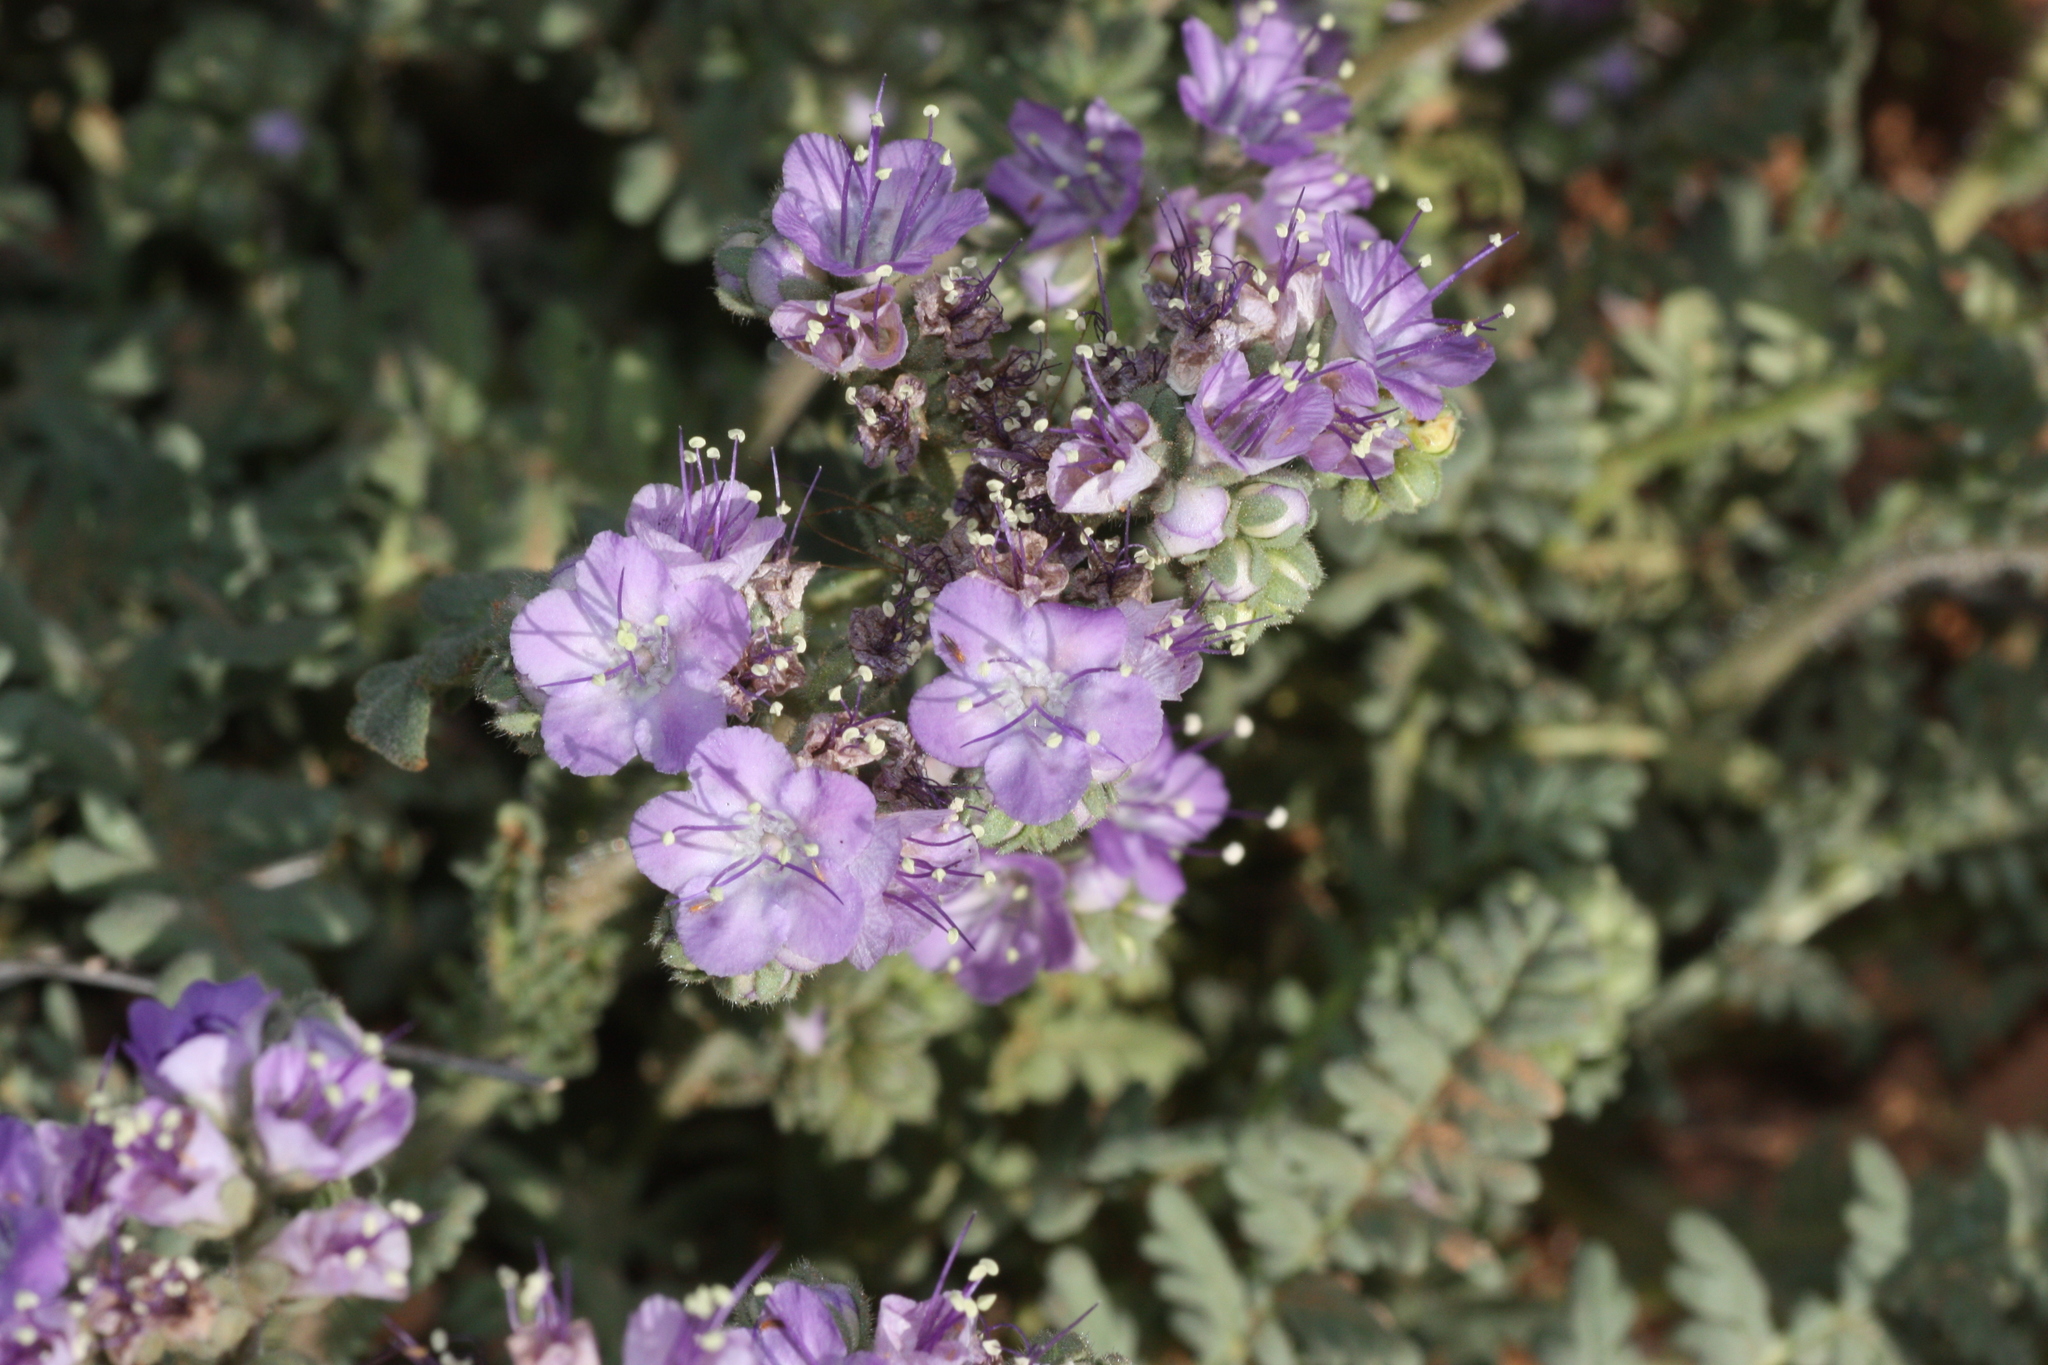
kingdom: Plantae
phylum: Tracheophyta
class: Magnoliopsida
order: Boraginales
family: Hydrophyllaceae
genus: Phacelia
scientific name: Phacelia popei
